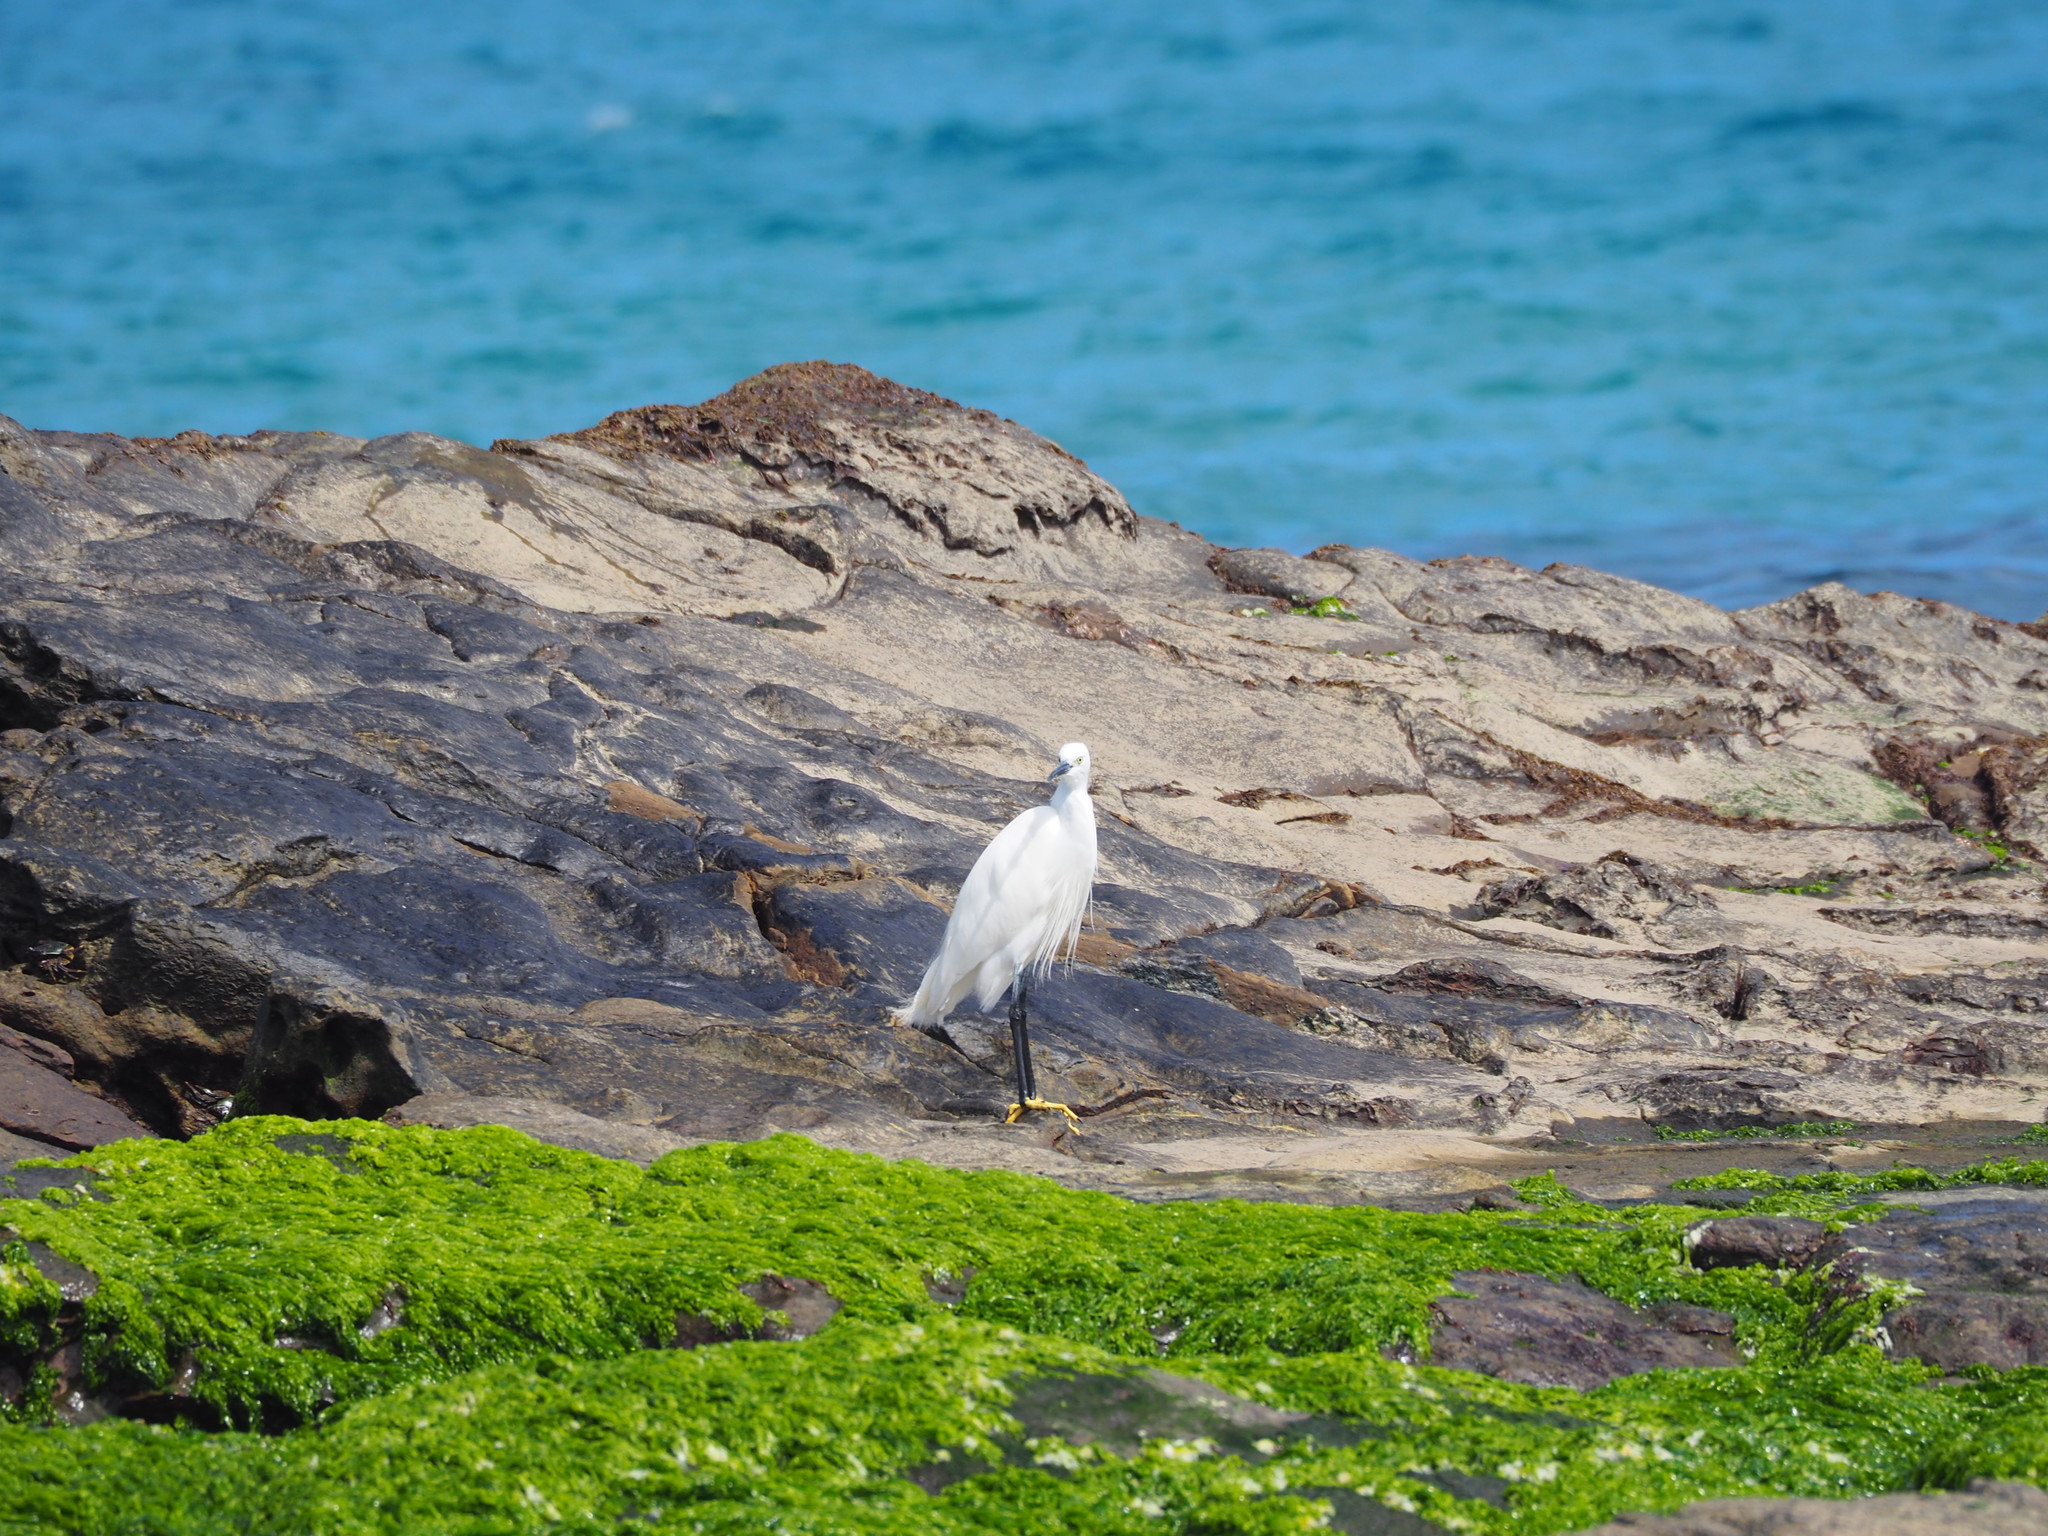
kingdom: Animalia
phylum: Chordata
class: Aves
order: Pelecaniformes
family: Ardeidae
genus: Egretta
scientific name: Egretta garzetta
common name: Little egret
